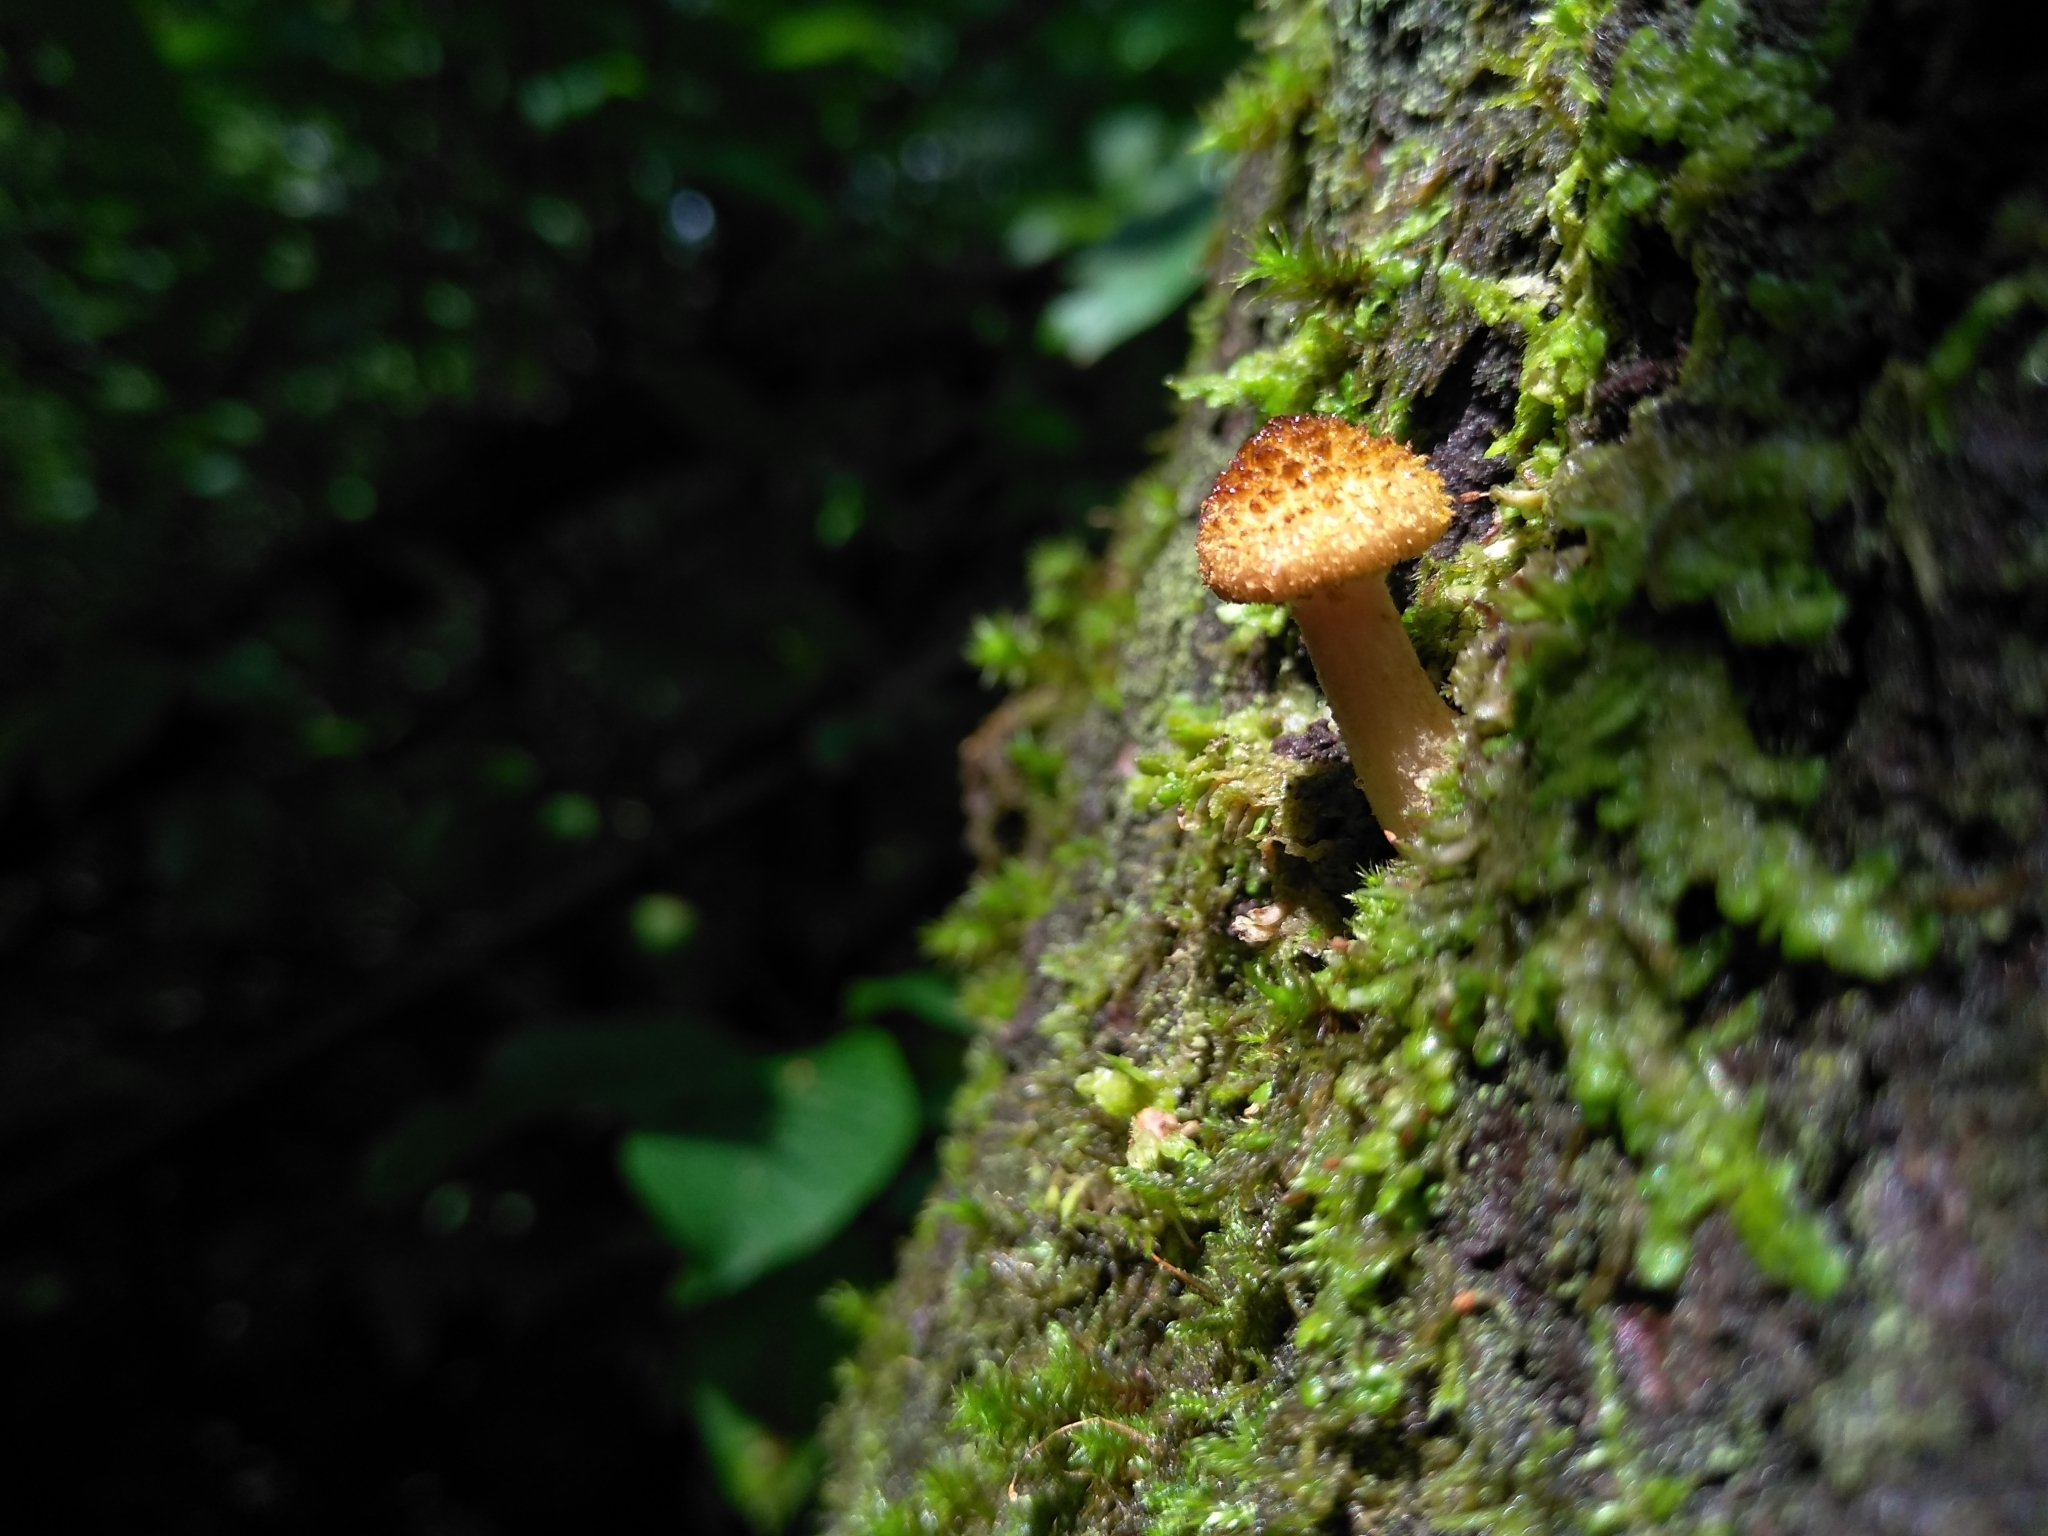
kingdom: Fungi
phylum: Basidiomycota
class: Agaricomycetes
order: Agaricales
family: Physalacriaceae
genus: Armillaria
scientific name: Armillaria borealis
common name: Northern honey fungus
